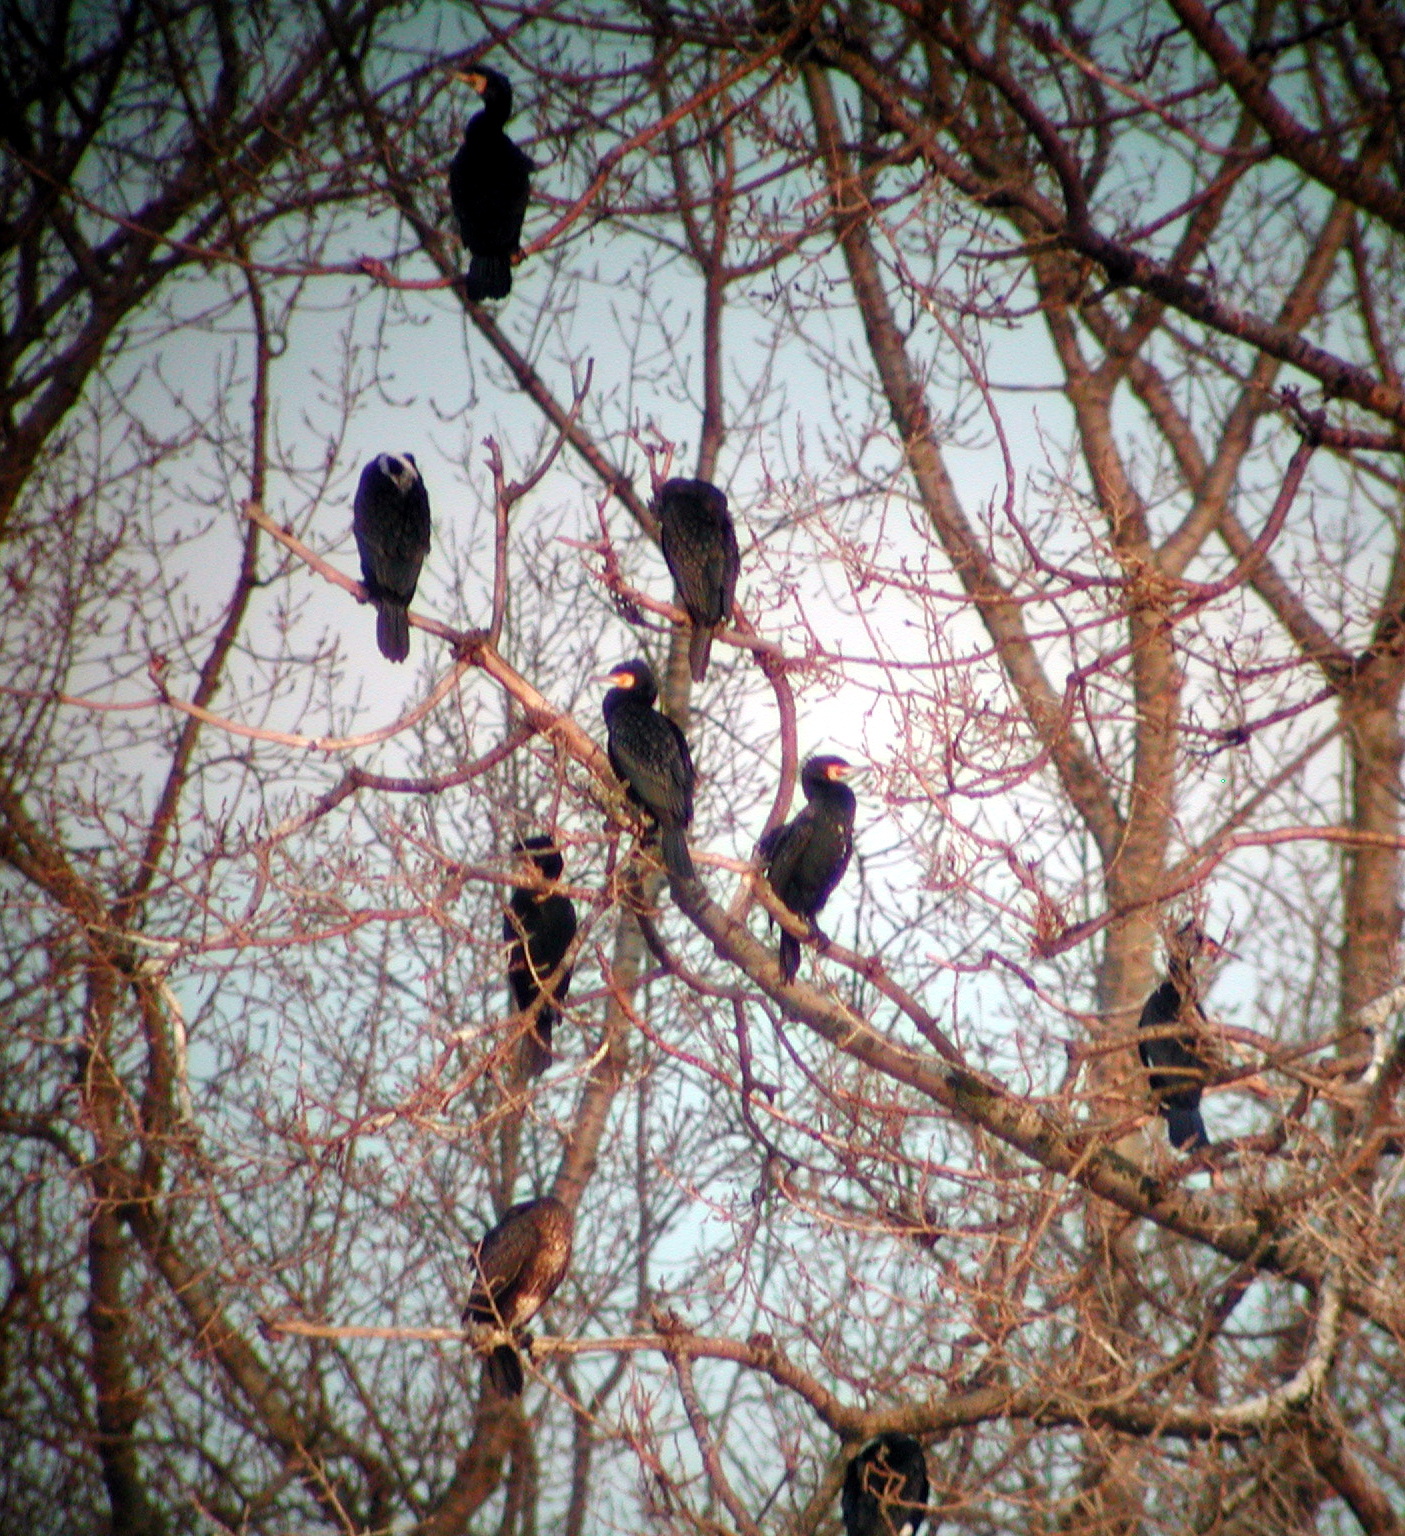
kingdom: Animalia
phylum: Chordata
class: Aves
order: Suliformes
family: Phalacrocoracidae
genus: Phalacrocorax
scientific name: Phalacrocorax carbo
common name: Great cormorant
